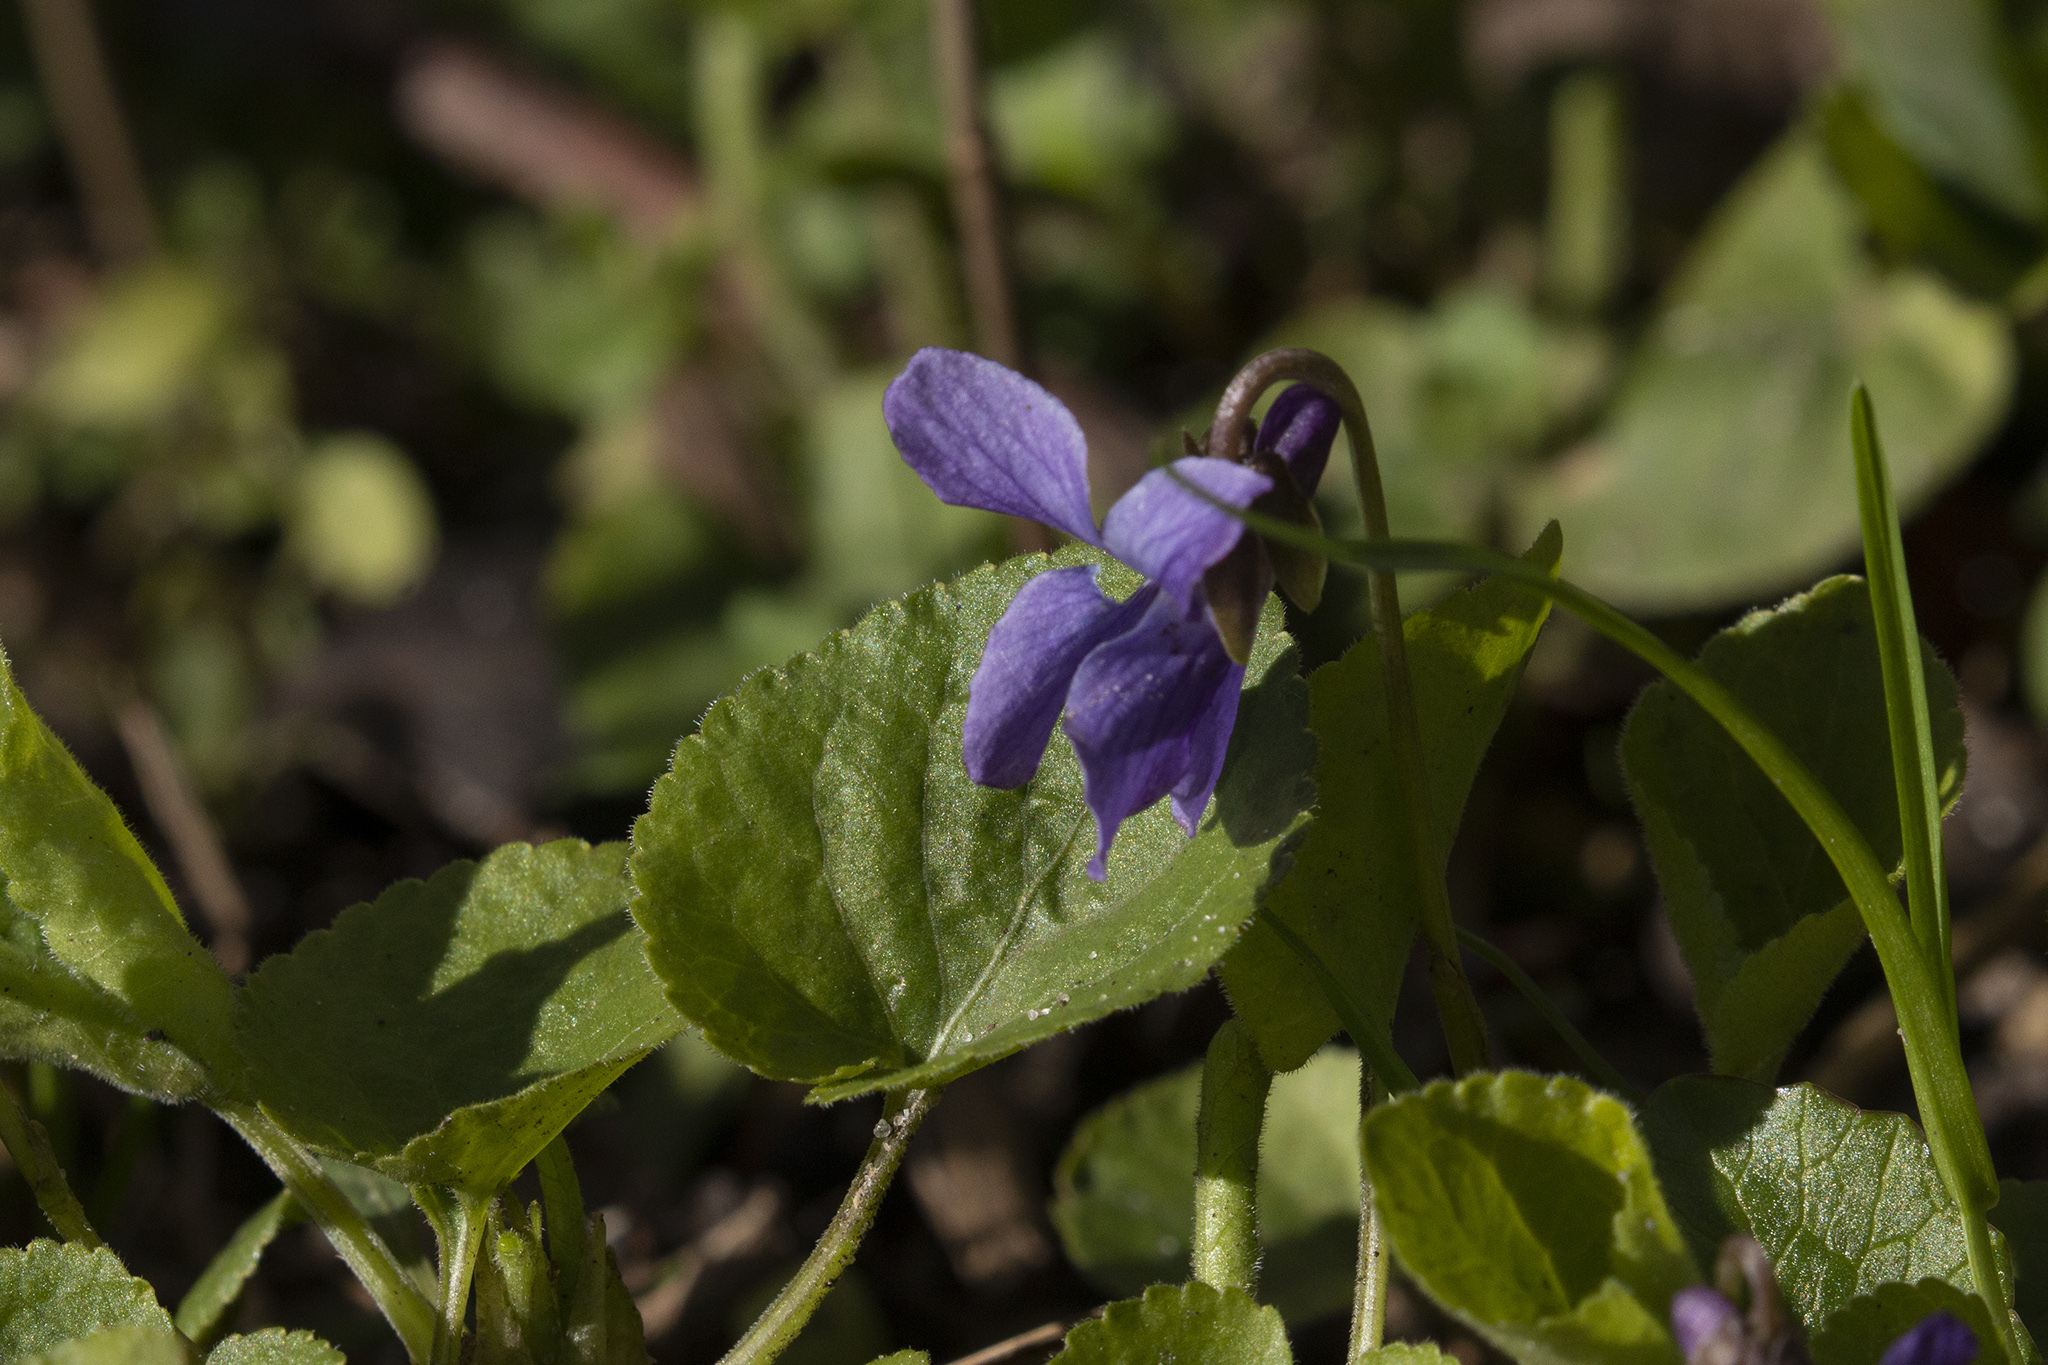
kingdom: Plantae
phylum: Tracheophyta
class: Magnoliopsida
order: Malpighiales
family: Violaceae
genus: Viola
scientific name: Viola odorata
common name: Sweet violet
